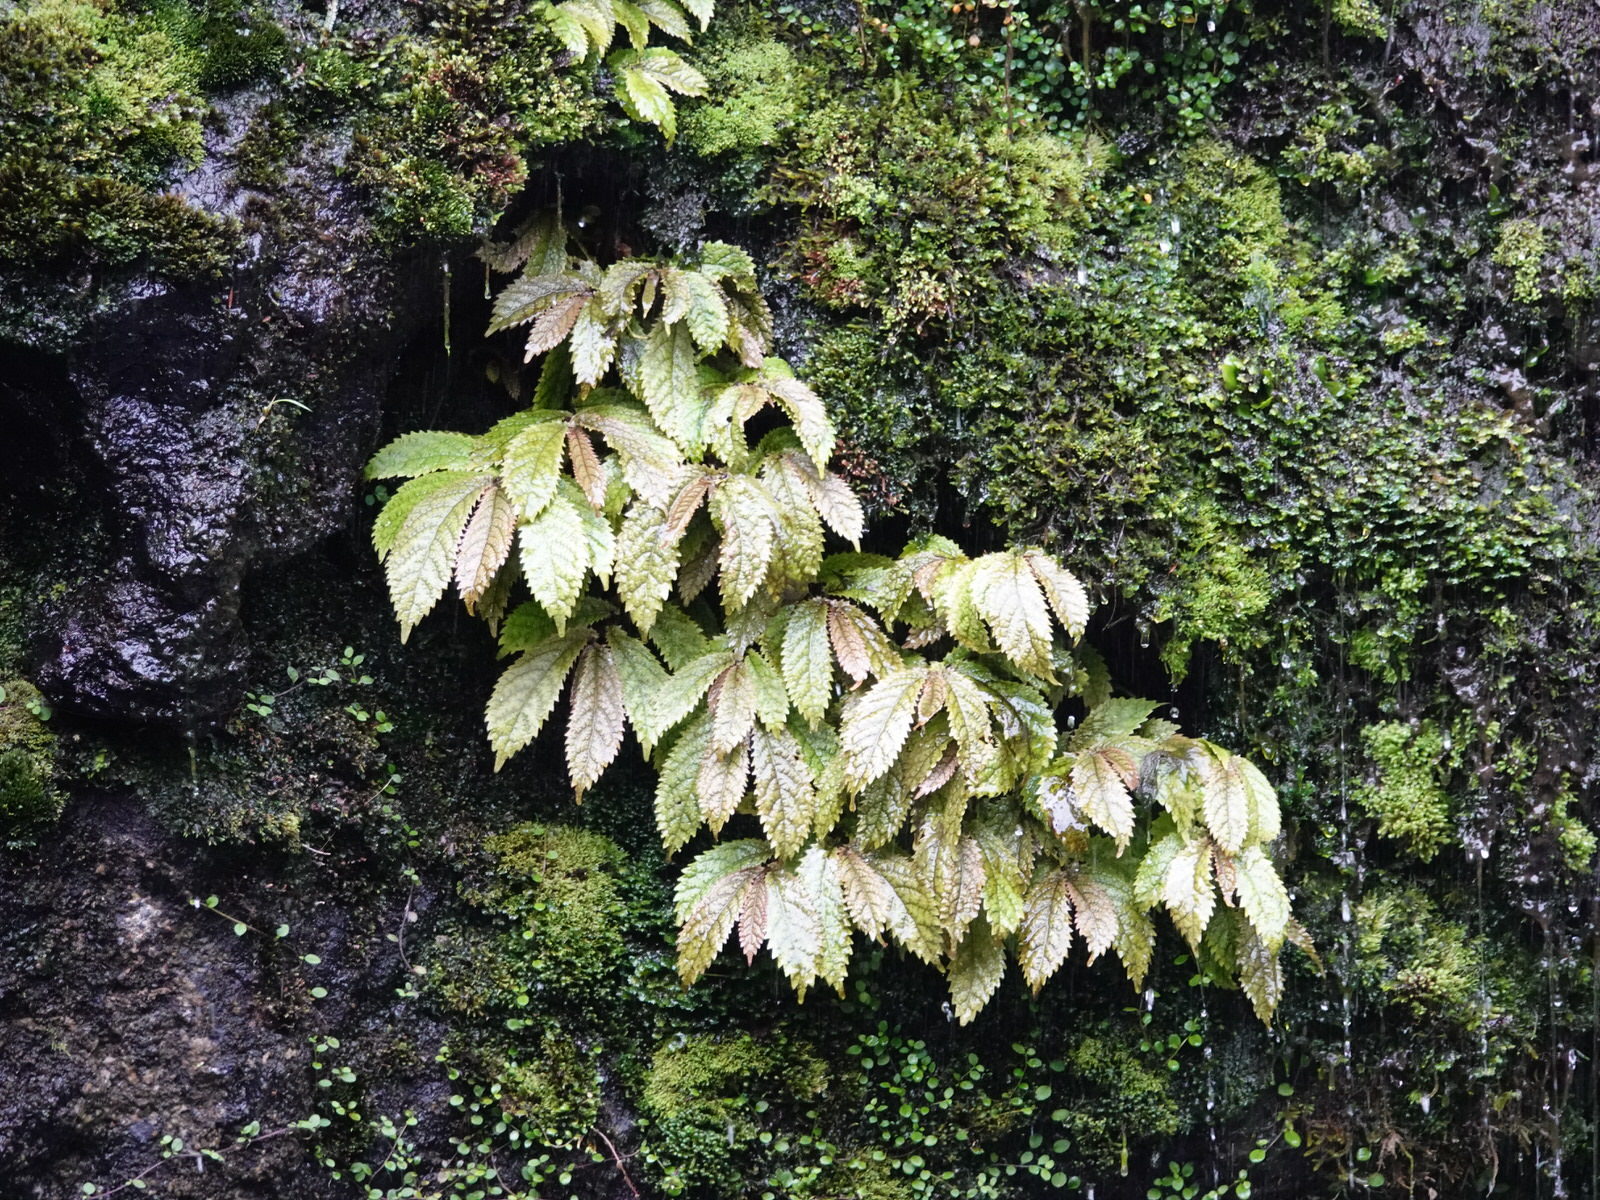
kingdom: Plantae
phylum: Tracheophyta
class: Magnoliopsida
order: Rosales
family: Urticaceae
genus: Elatostema
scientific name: Elatostema rugosum
